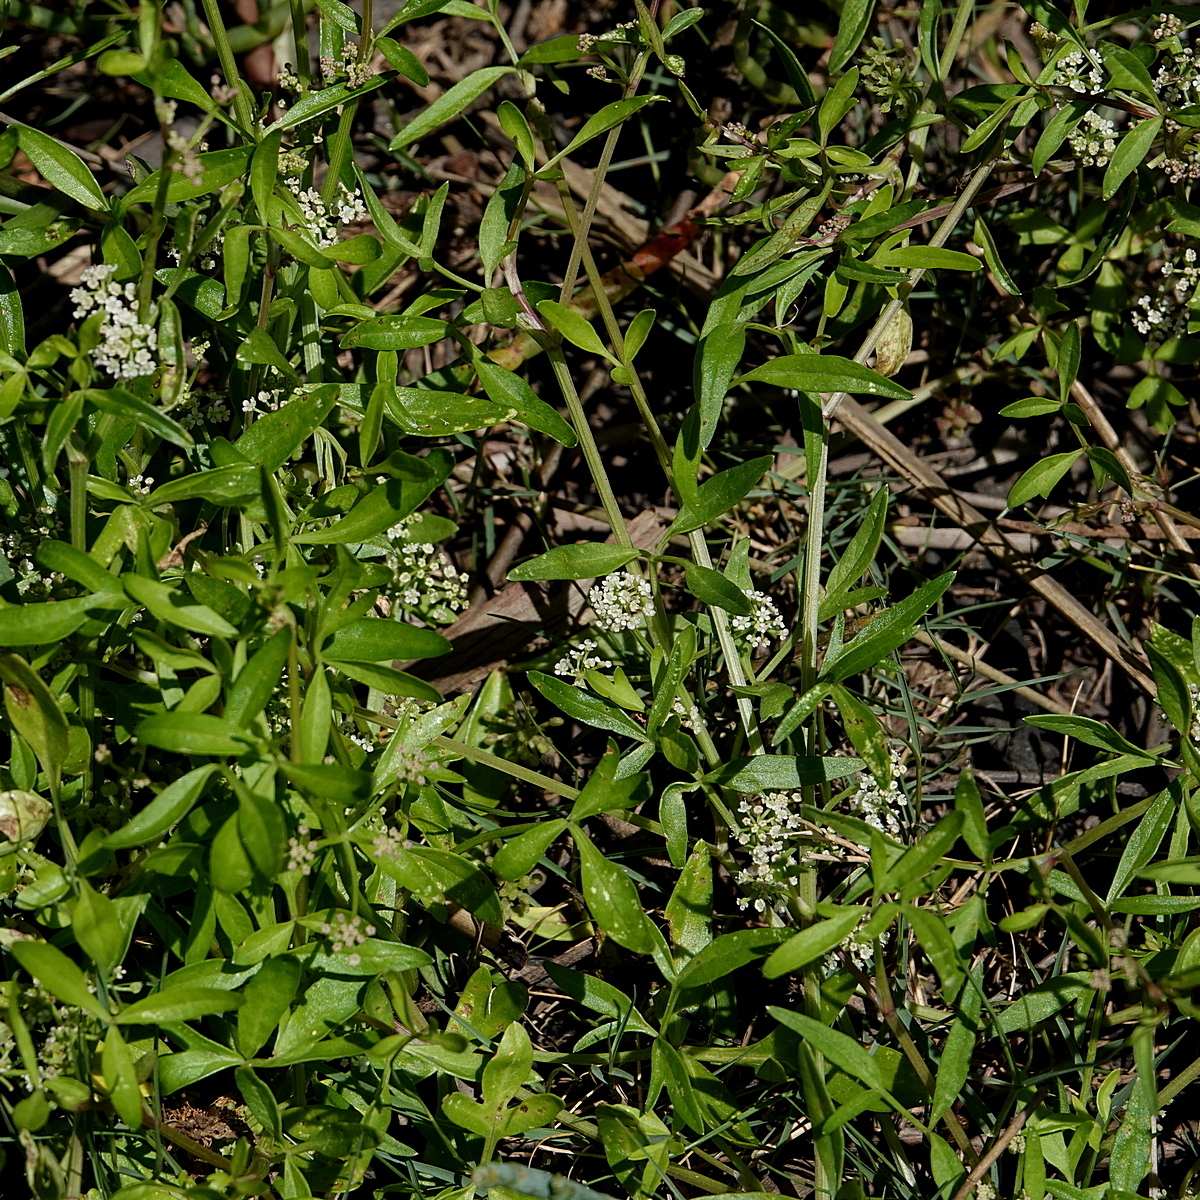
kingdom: Plantae
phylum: Tracheophyta
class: Magnoliopsida
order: Apiales
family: Apiaceae
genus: Apium
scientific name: Apium prostratum
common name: Prostrate marshwort
